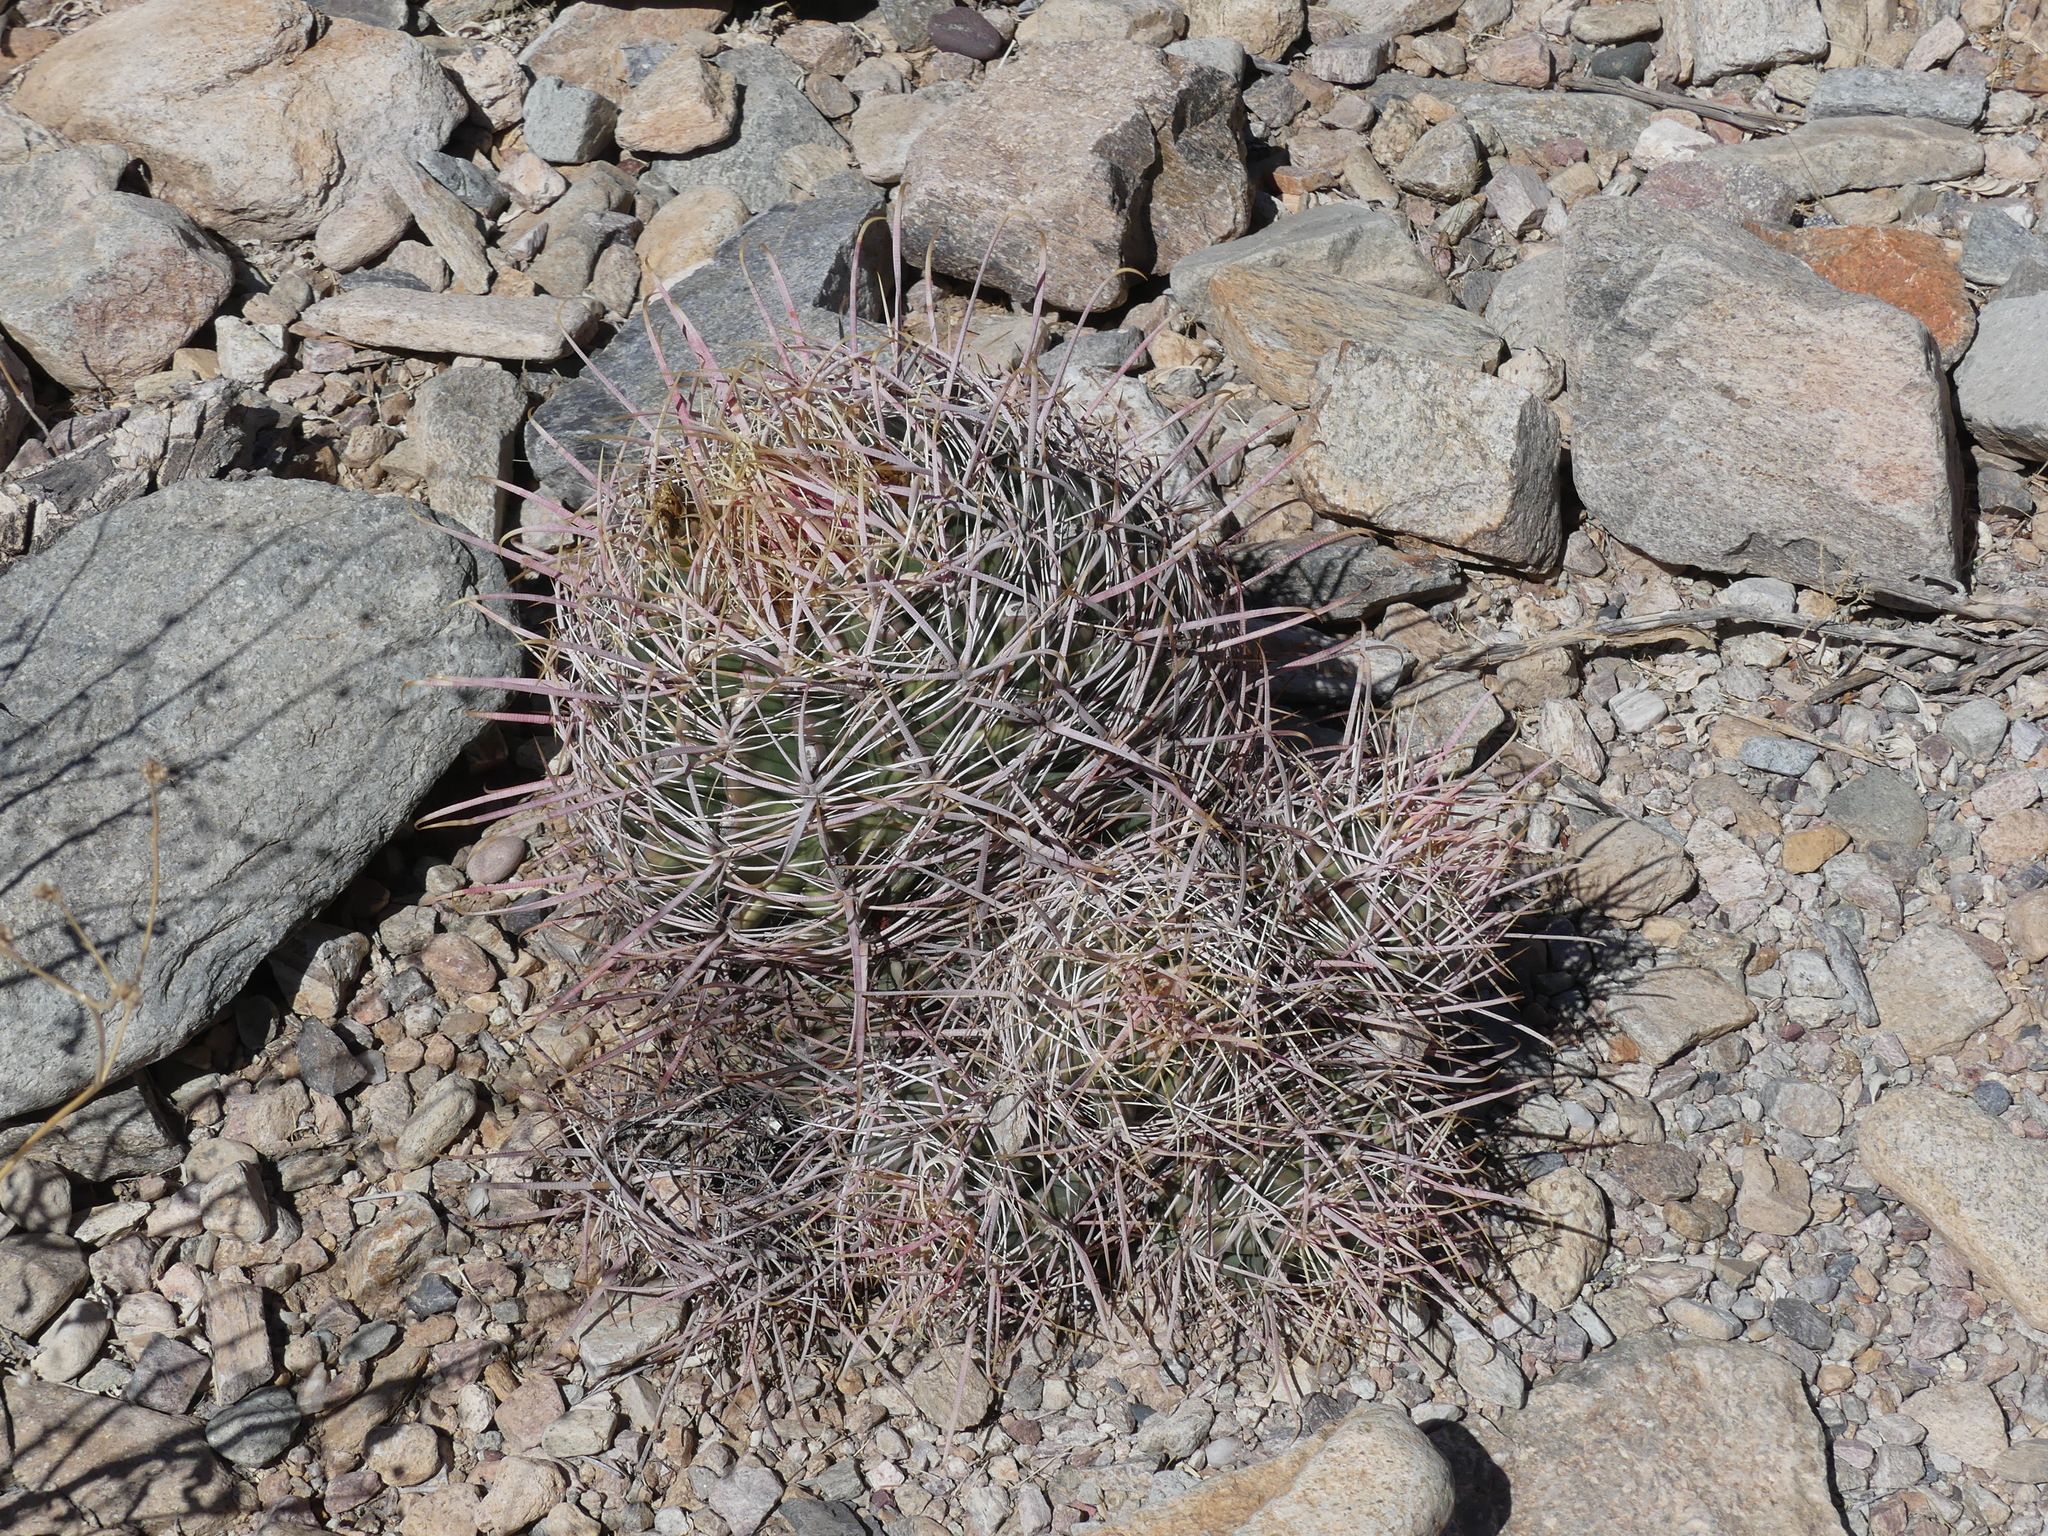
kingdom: Plantae
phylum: Tracheophyta
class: Magnoliopsida
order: Caryophyllales
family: Cactaceae
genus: Ferocactus
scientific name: Ferocactus cylindraceus
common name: California barrel cactus
